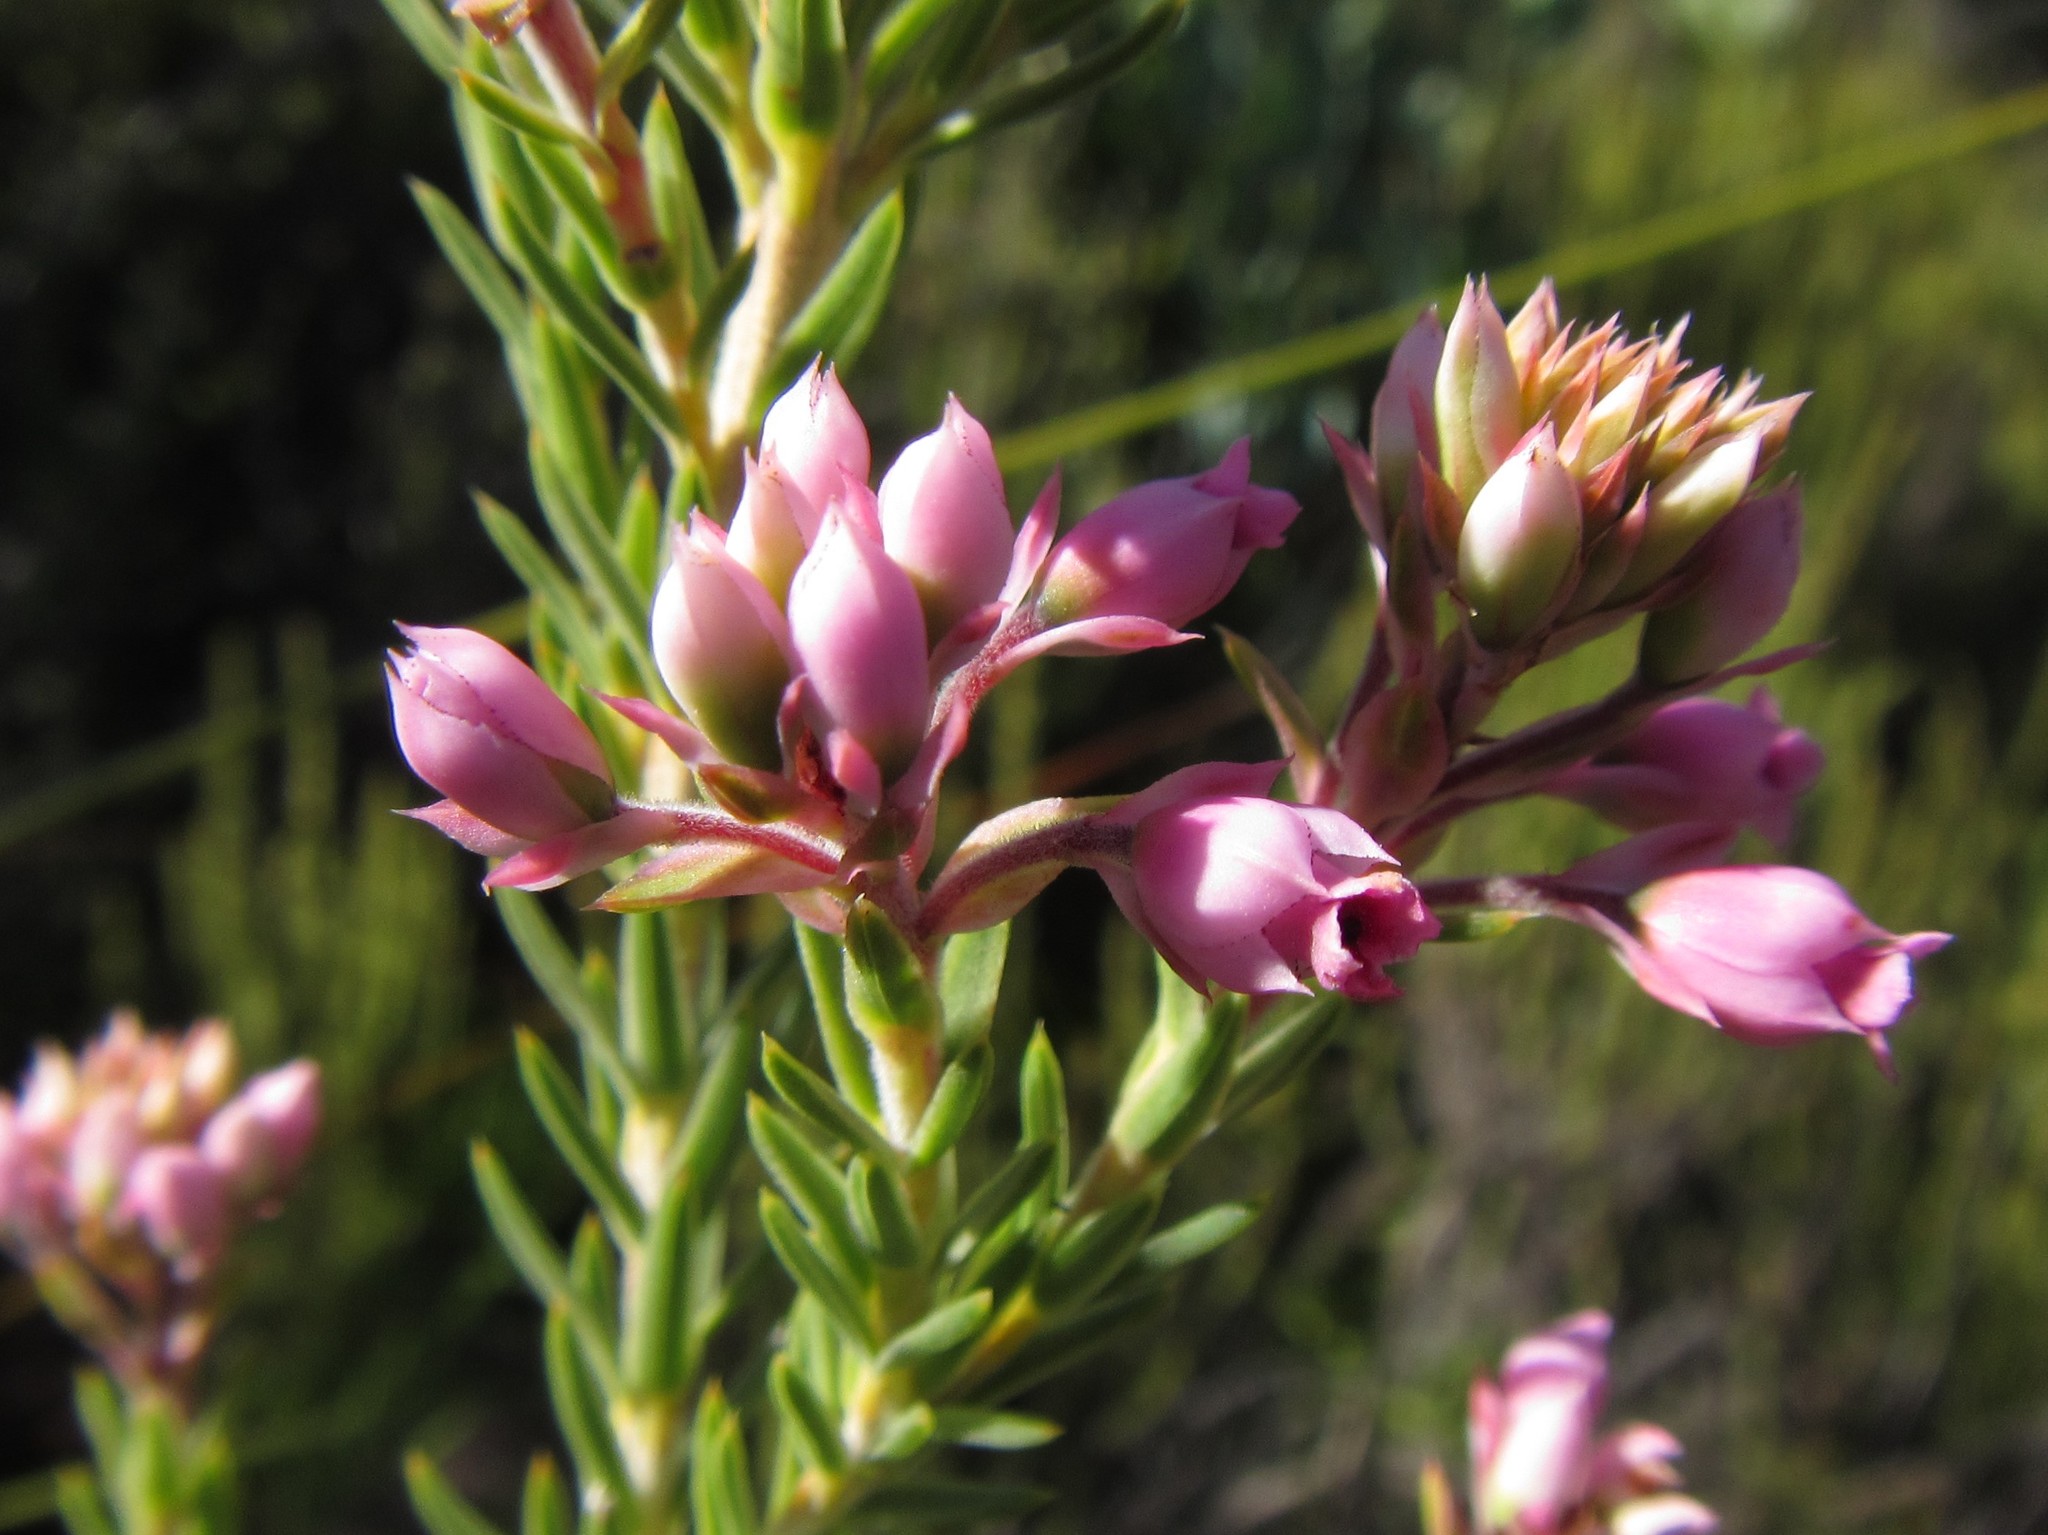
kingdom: Plantae
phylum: Tracheophyta
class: Magnoliopsida
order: Ericales
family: Ericaceae
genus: Erica
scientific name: Erica taxifolia
